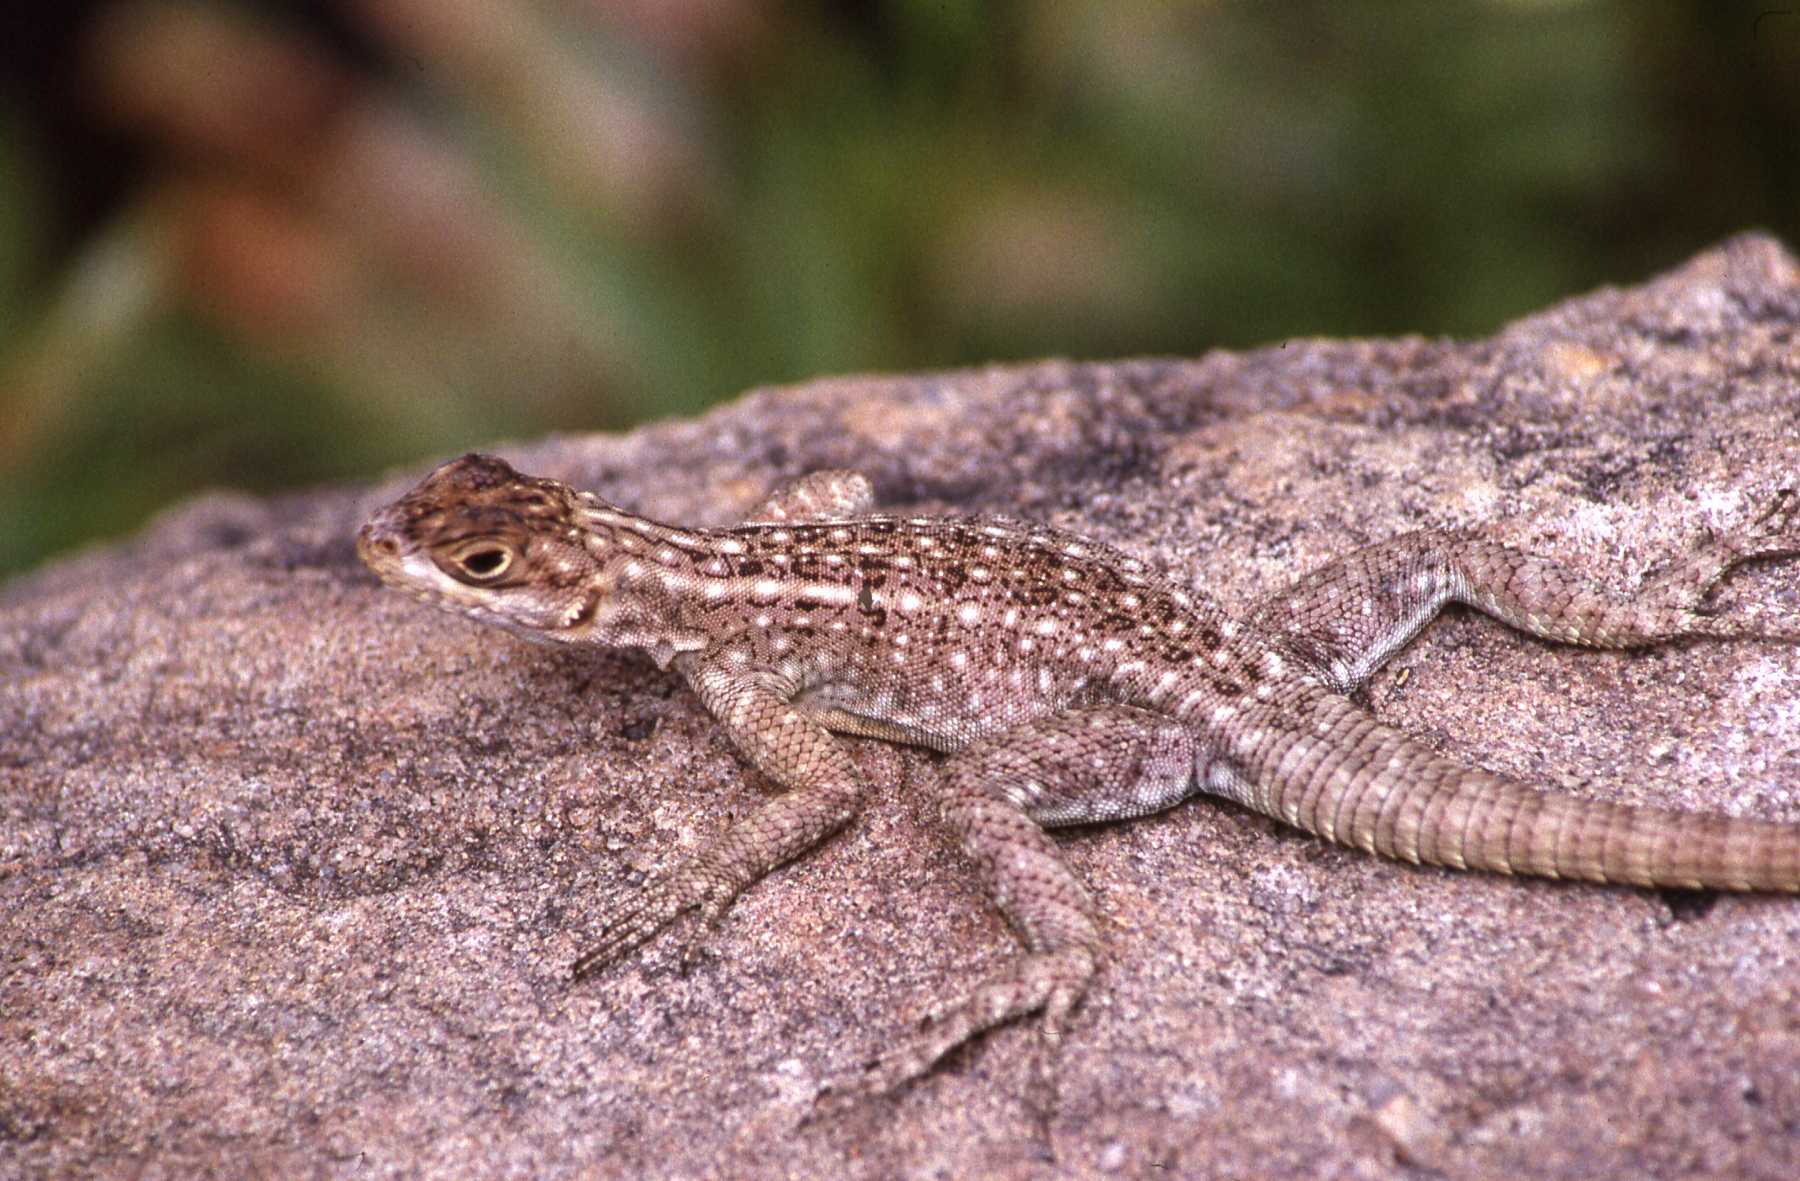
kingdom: Animalia
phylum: Chordata
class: Squamata
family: Opluridae
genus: Oplurus
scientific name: Oplurus quadrimaculatus
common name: Duméril's madagascar swift
